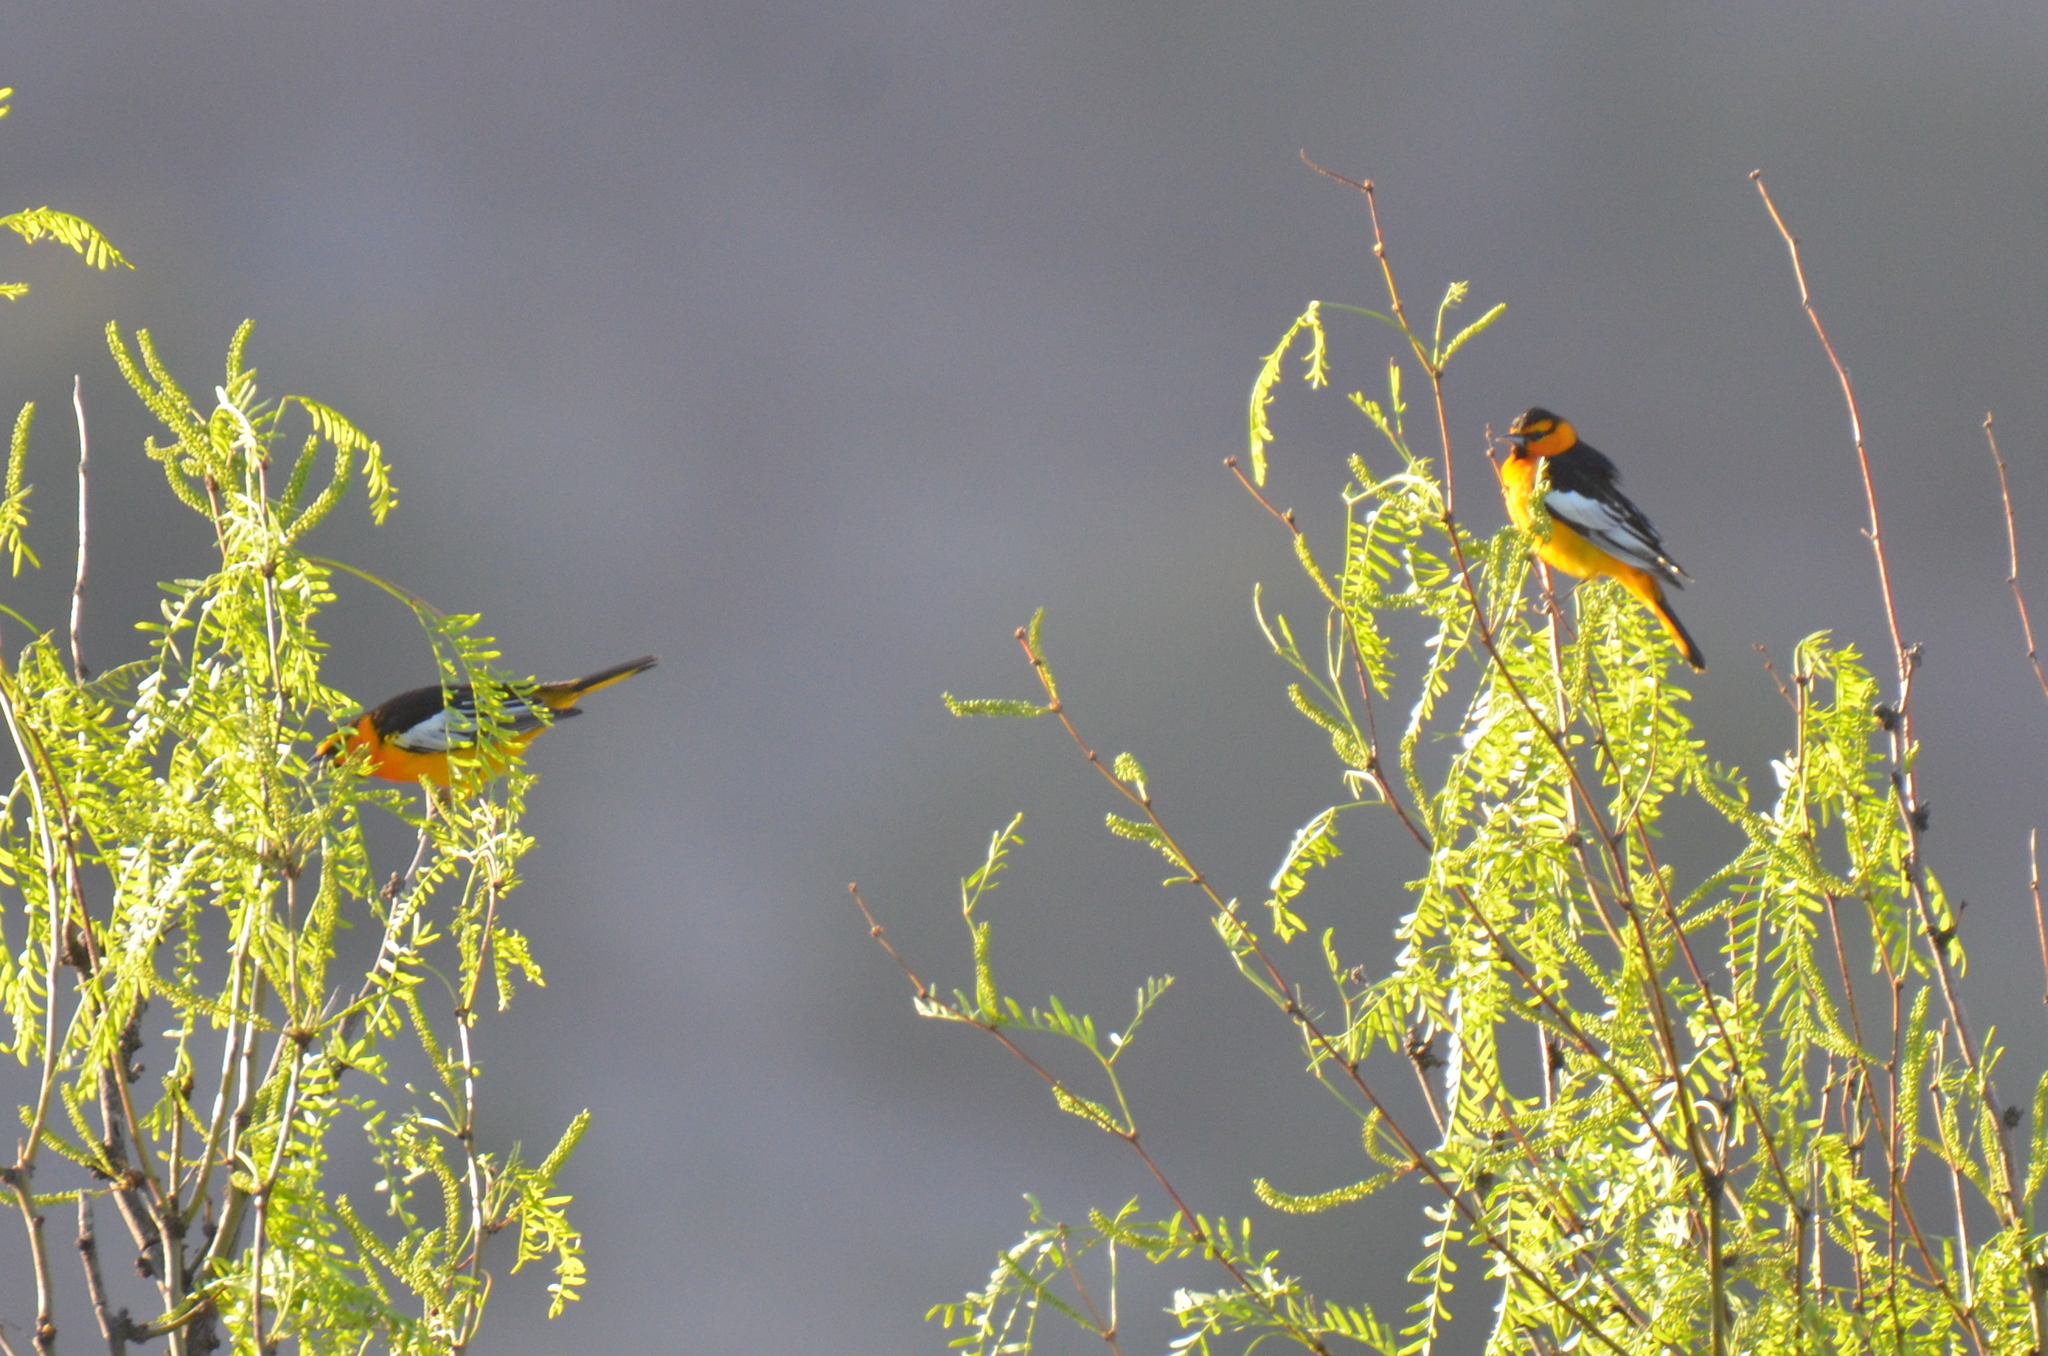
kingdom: Animalia
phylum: Chordata
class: Aves
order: Passeriformes
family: Icteridae
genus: Icterus
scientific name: Icterus bullockii
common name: Bullock's oriole
